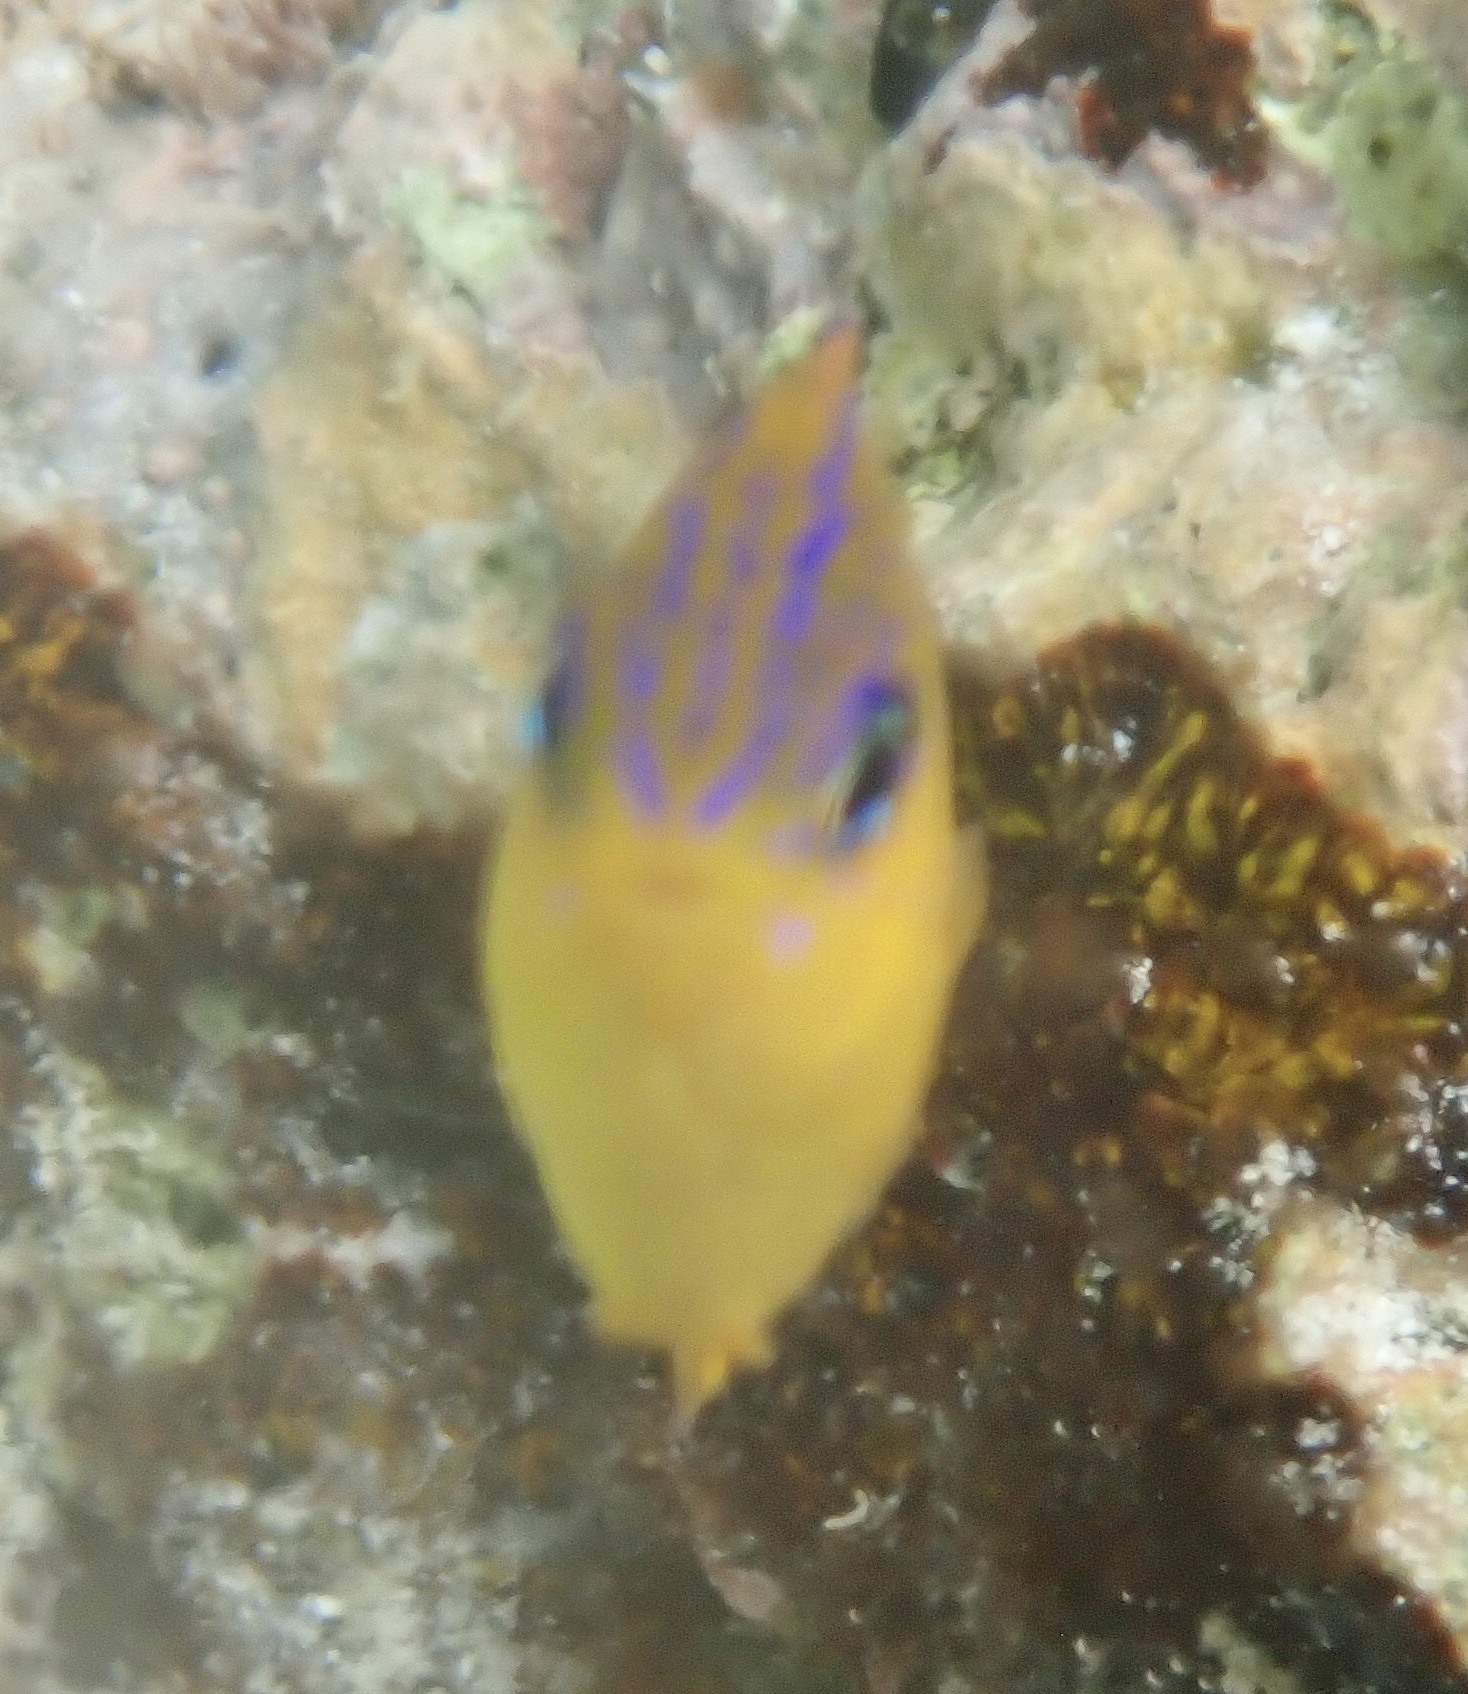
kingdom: Animalia
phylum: Chordata
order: Perciformes
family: Pomacentridae
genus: Stegastes
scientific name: Stegastes diencaeus
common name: Longfin damselfish
